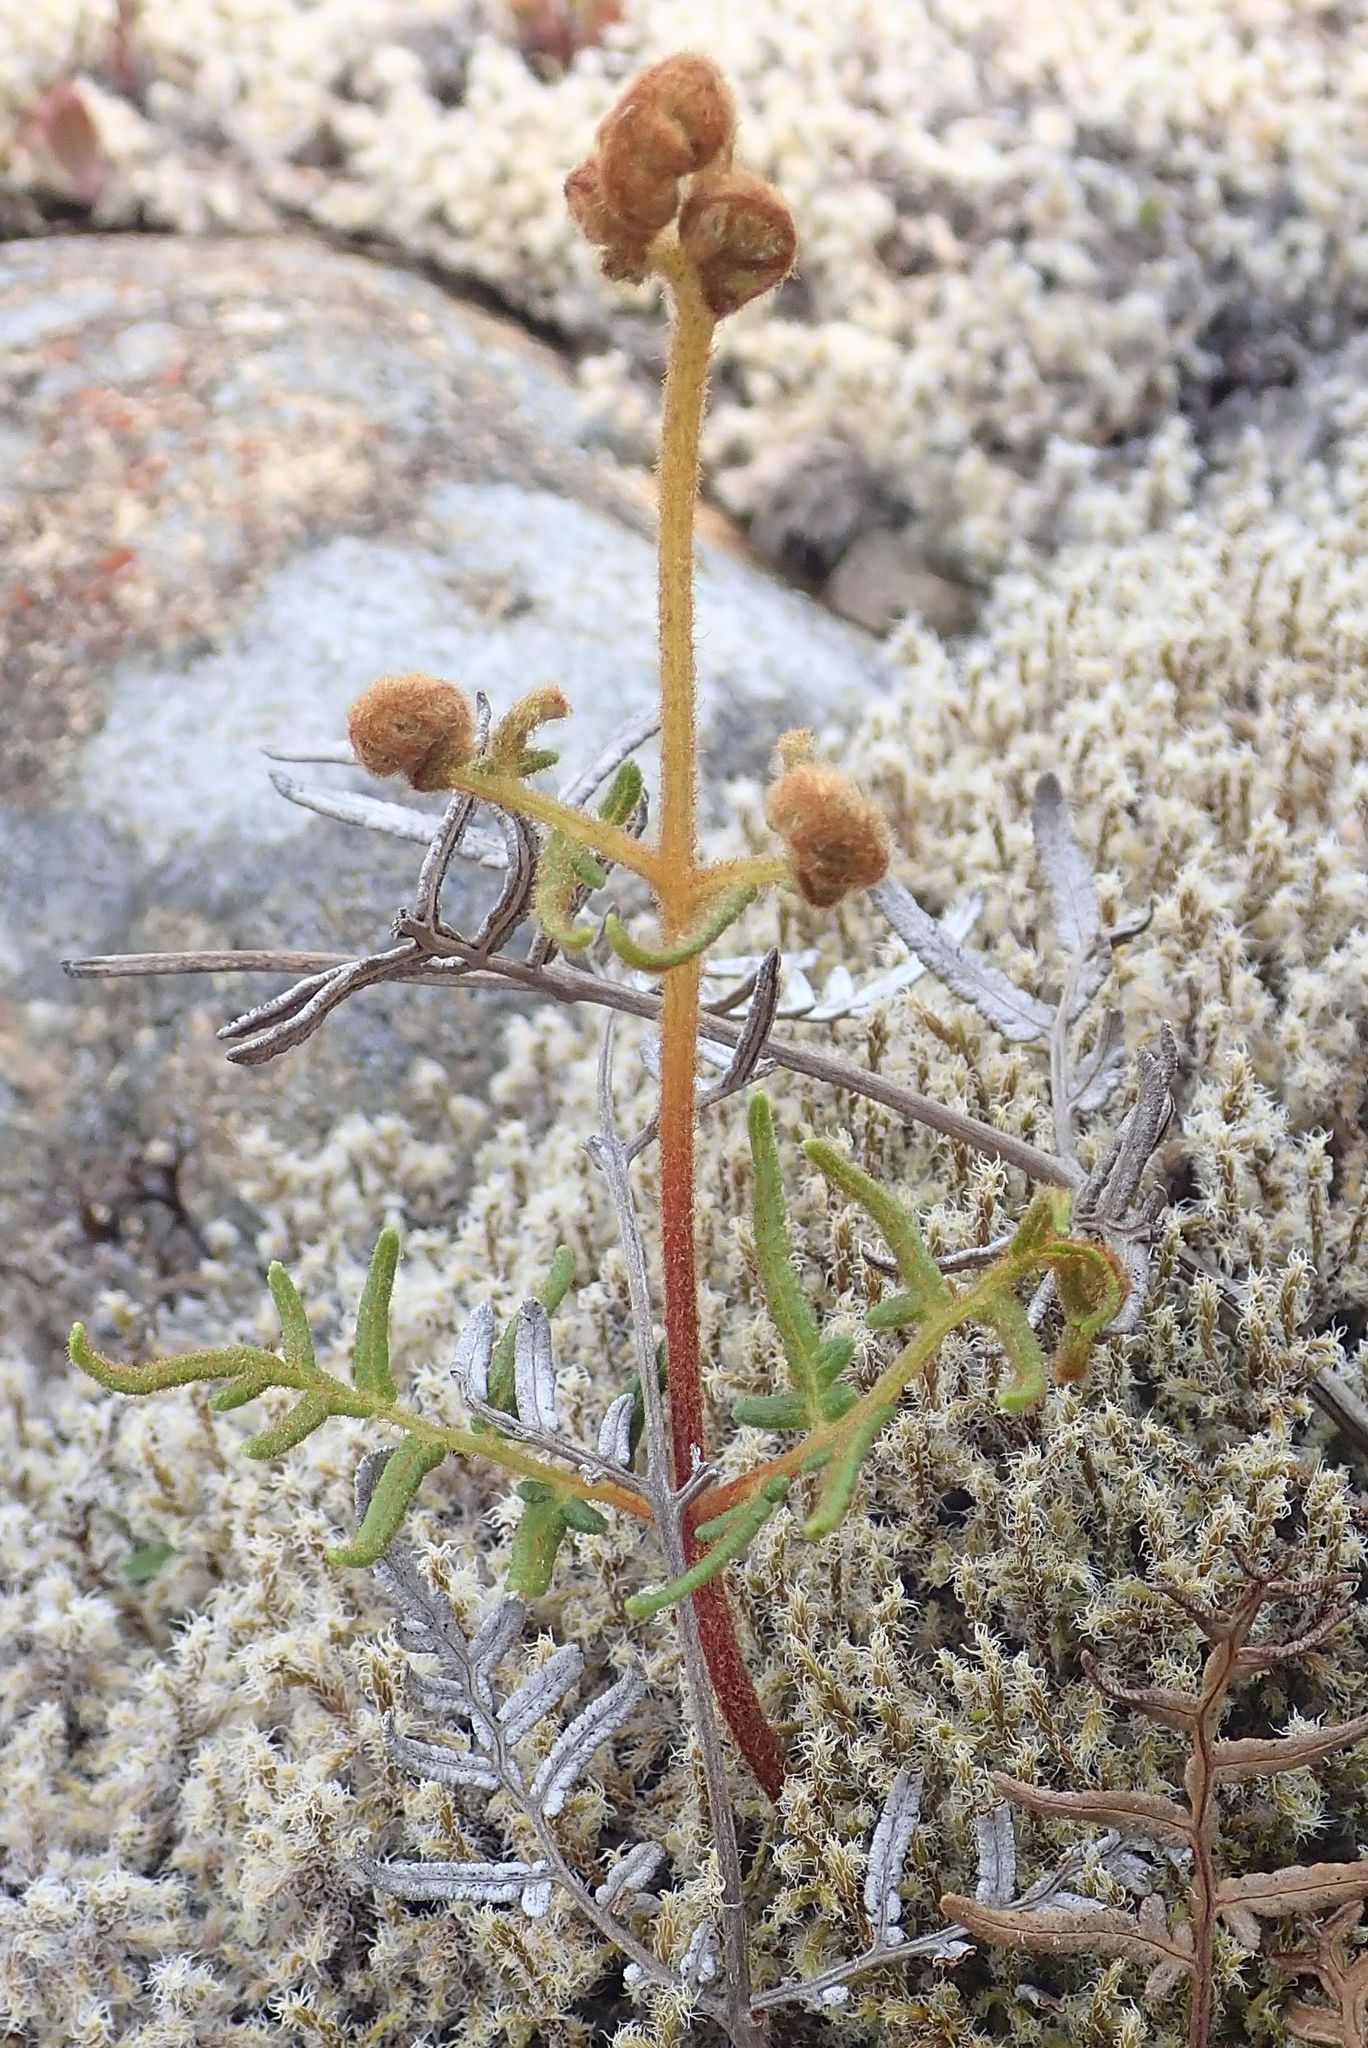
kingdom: Plantae
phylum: Tracheophyta
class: Polypodiopsida
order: Polypodiales
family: Dennstaedtiaceae
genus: Pteridium
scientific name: Pteridium esculentum
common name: Bracken fern
